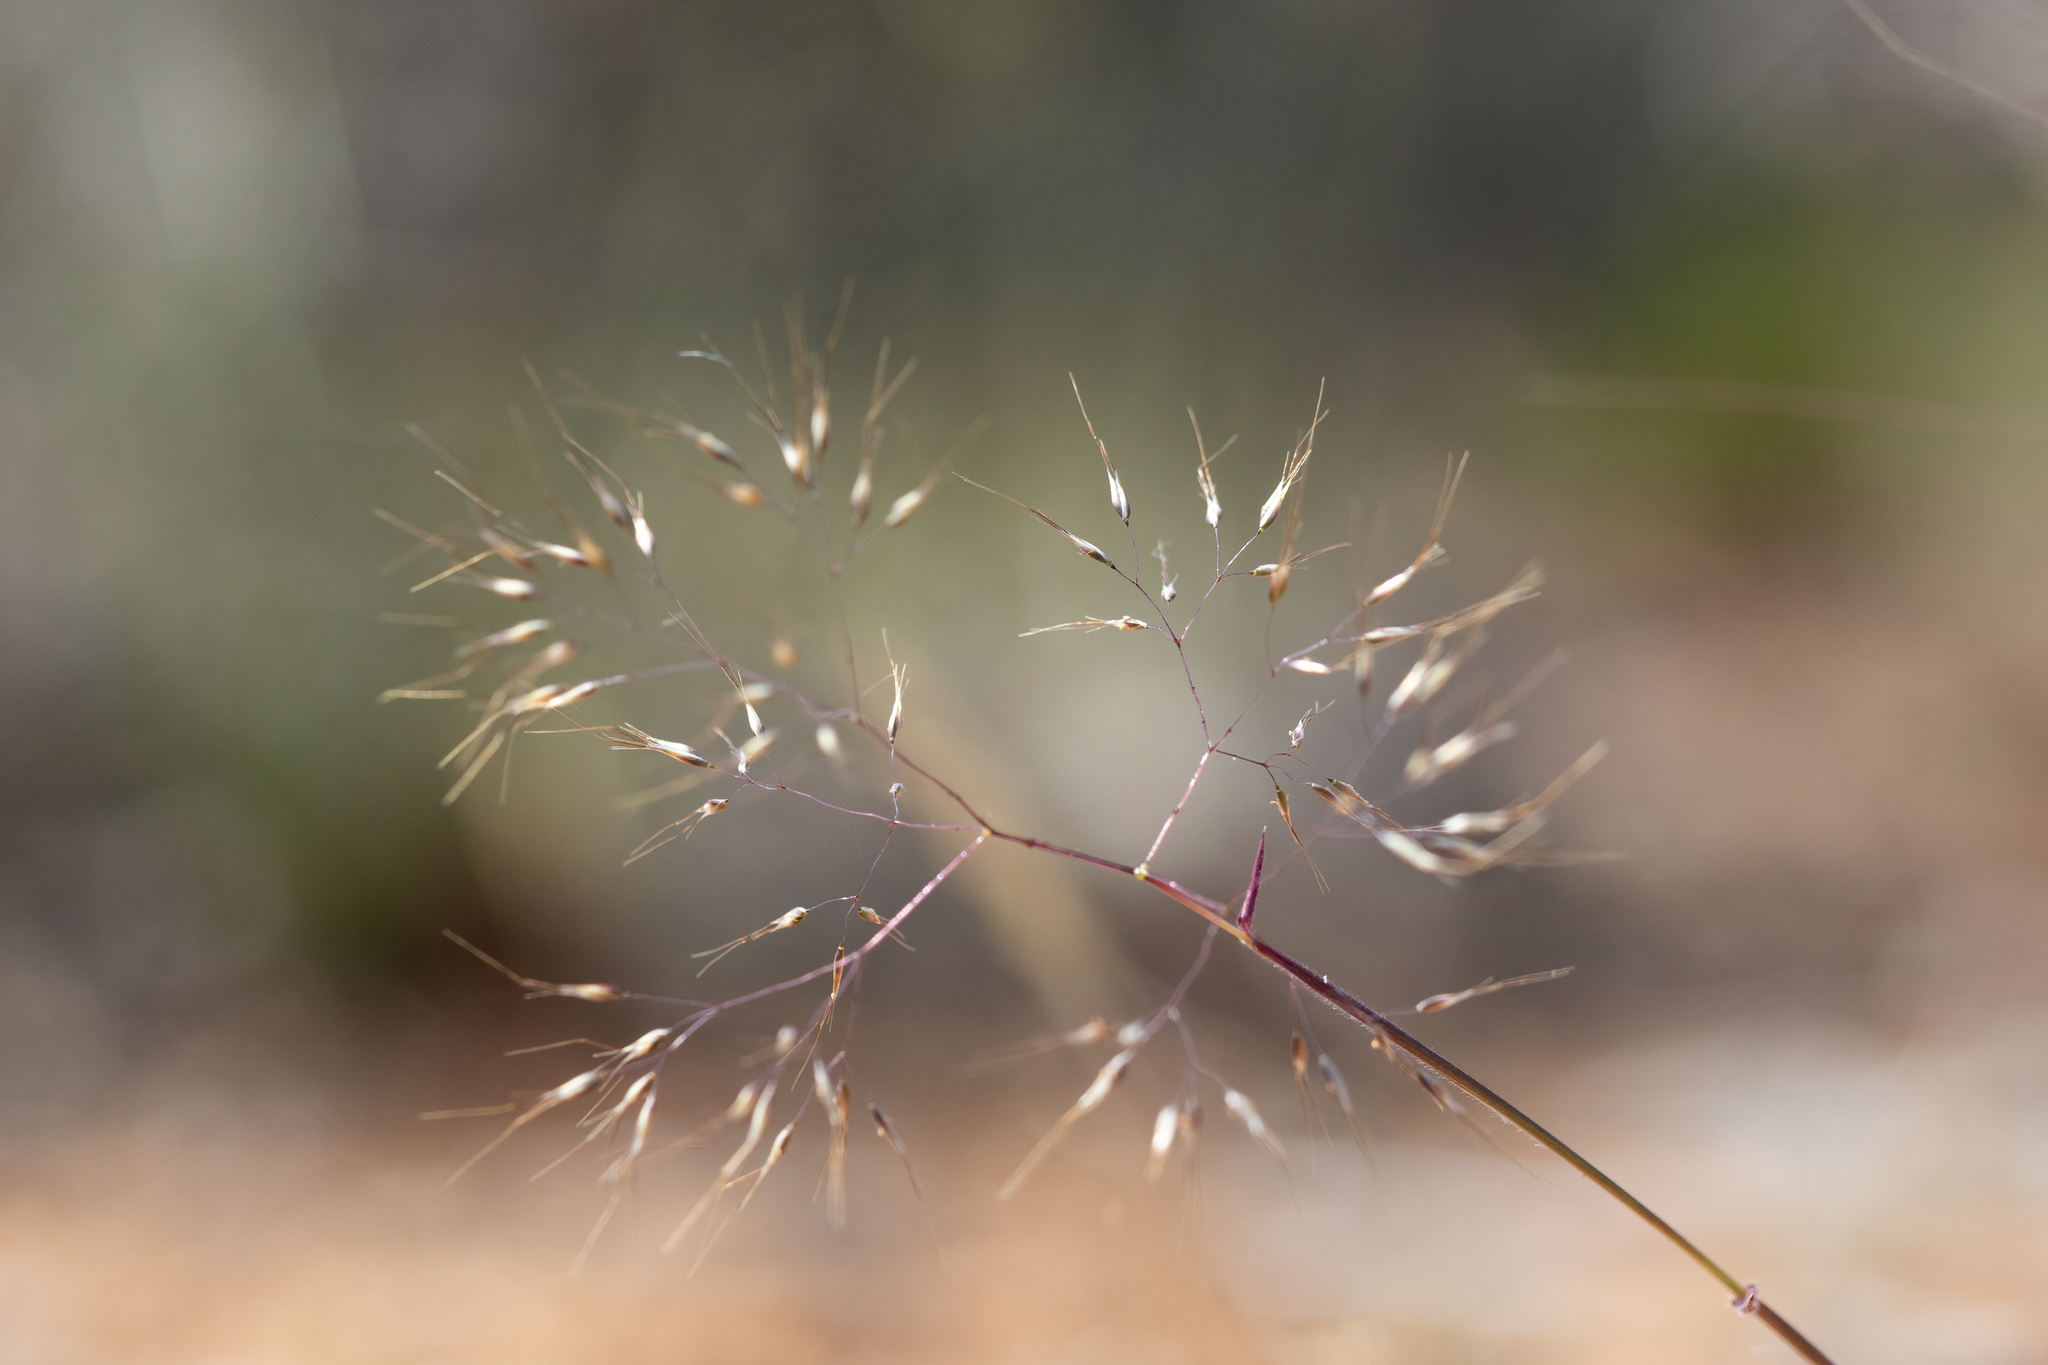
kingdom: Plantae
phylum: Tracheophyta
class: Liliopsida
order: Poales
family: Poaceae
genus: Pentameris
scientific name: Pentameris airoides
